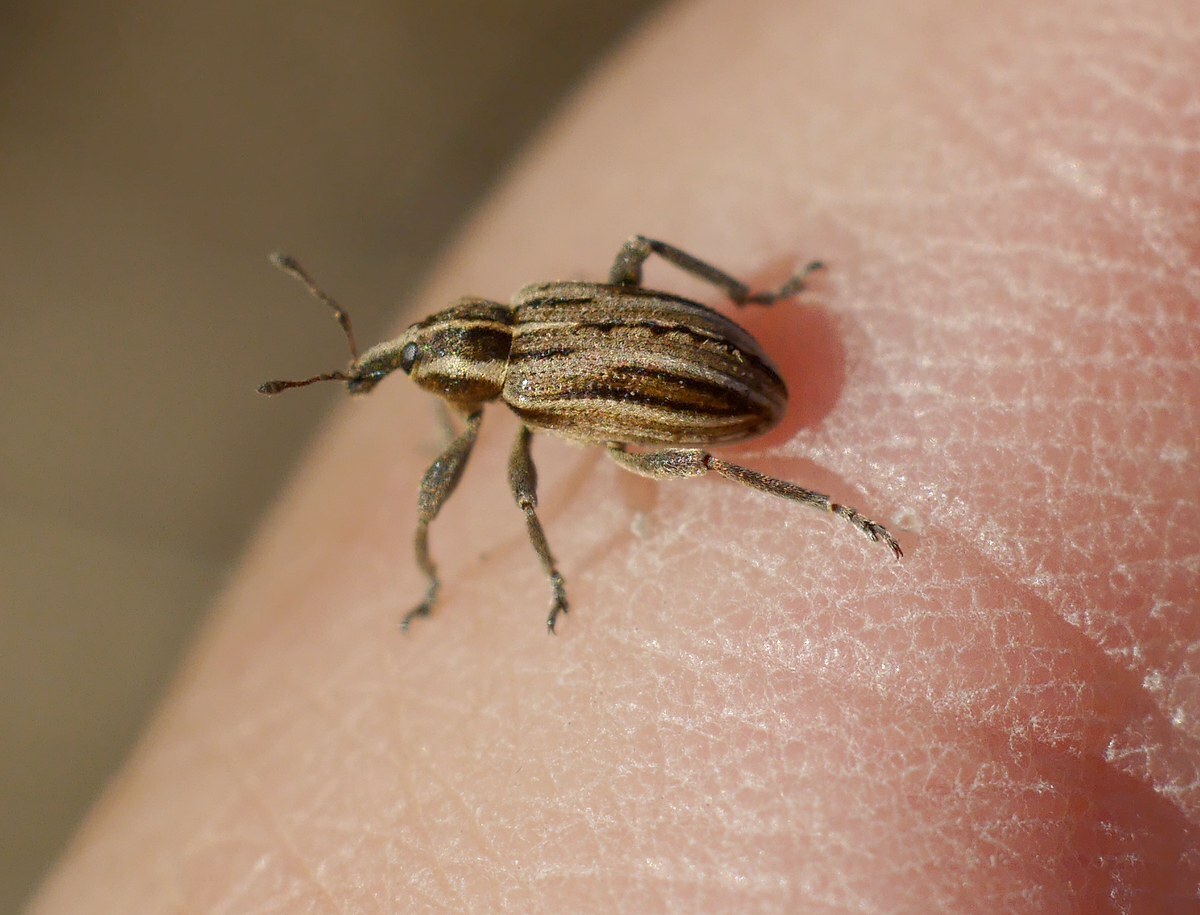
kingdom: Animalia
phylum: Arthropoda
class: Insecta
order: Coleoptera
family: Curculionidae
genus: Hypera
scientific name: Hypera arator
